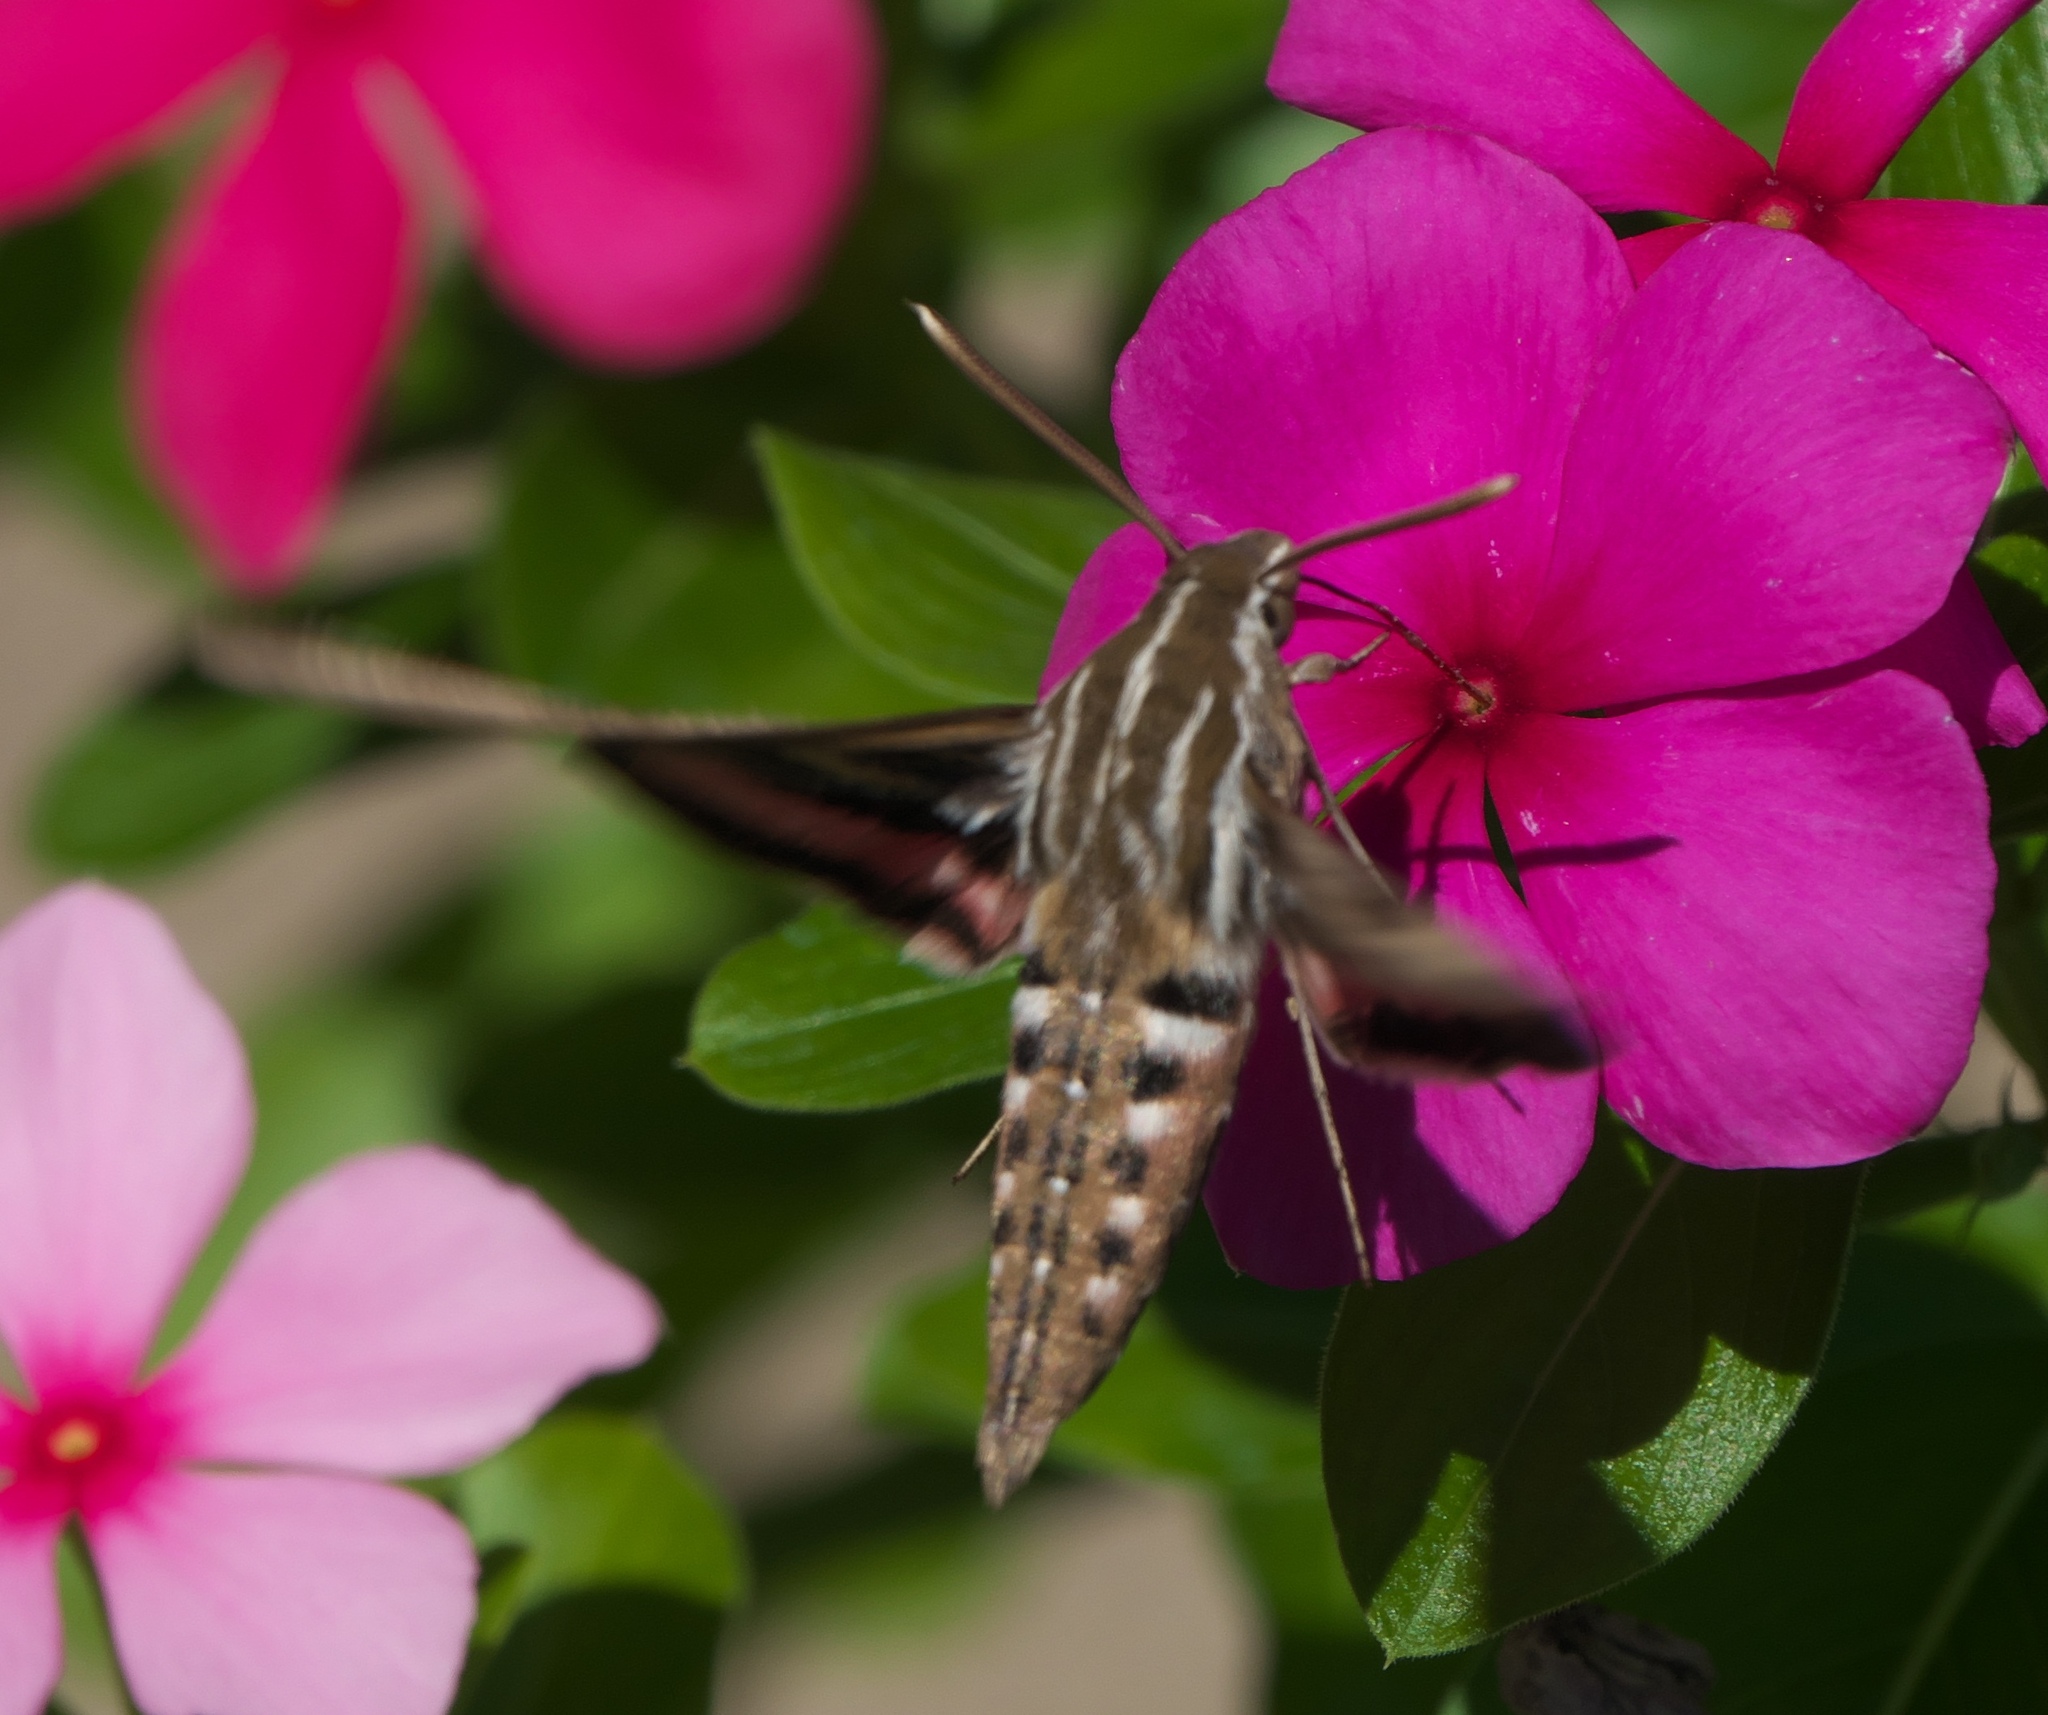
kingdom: Animalia
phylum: Arthropoda
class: Insecta
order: Lepidoptera
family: Sphingidae
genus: Hyles
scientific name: Hyles lineata
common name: White-lined sphinx
